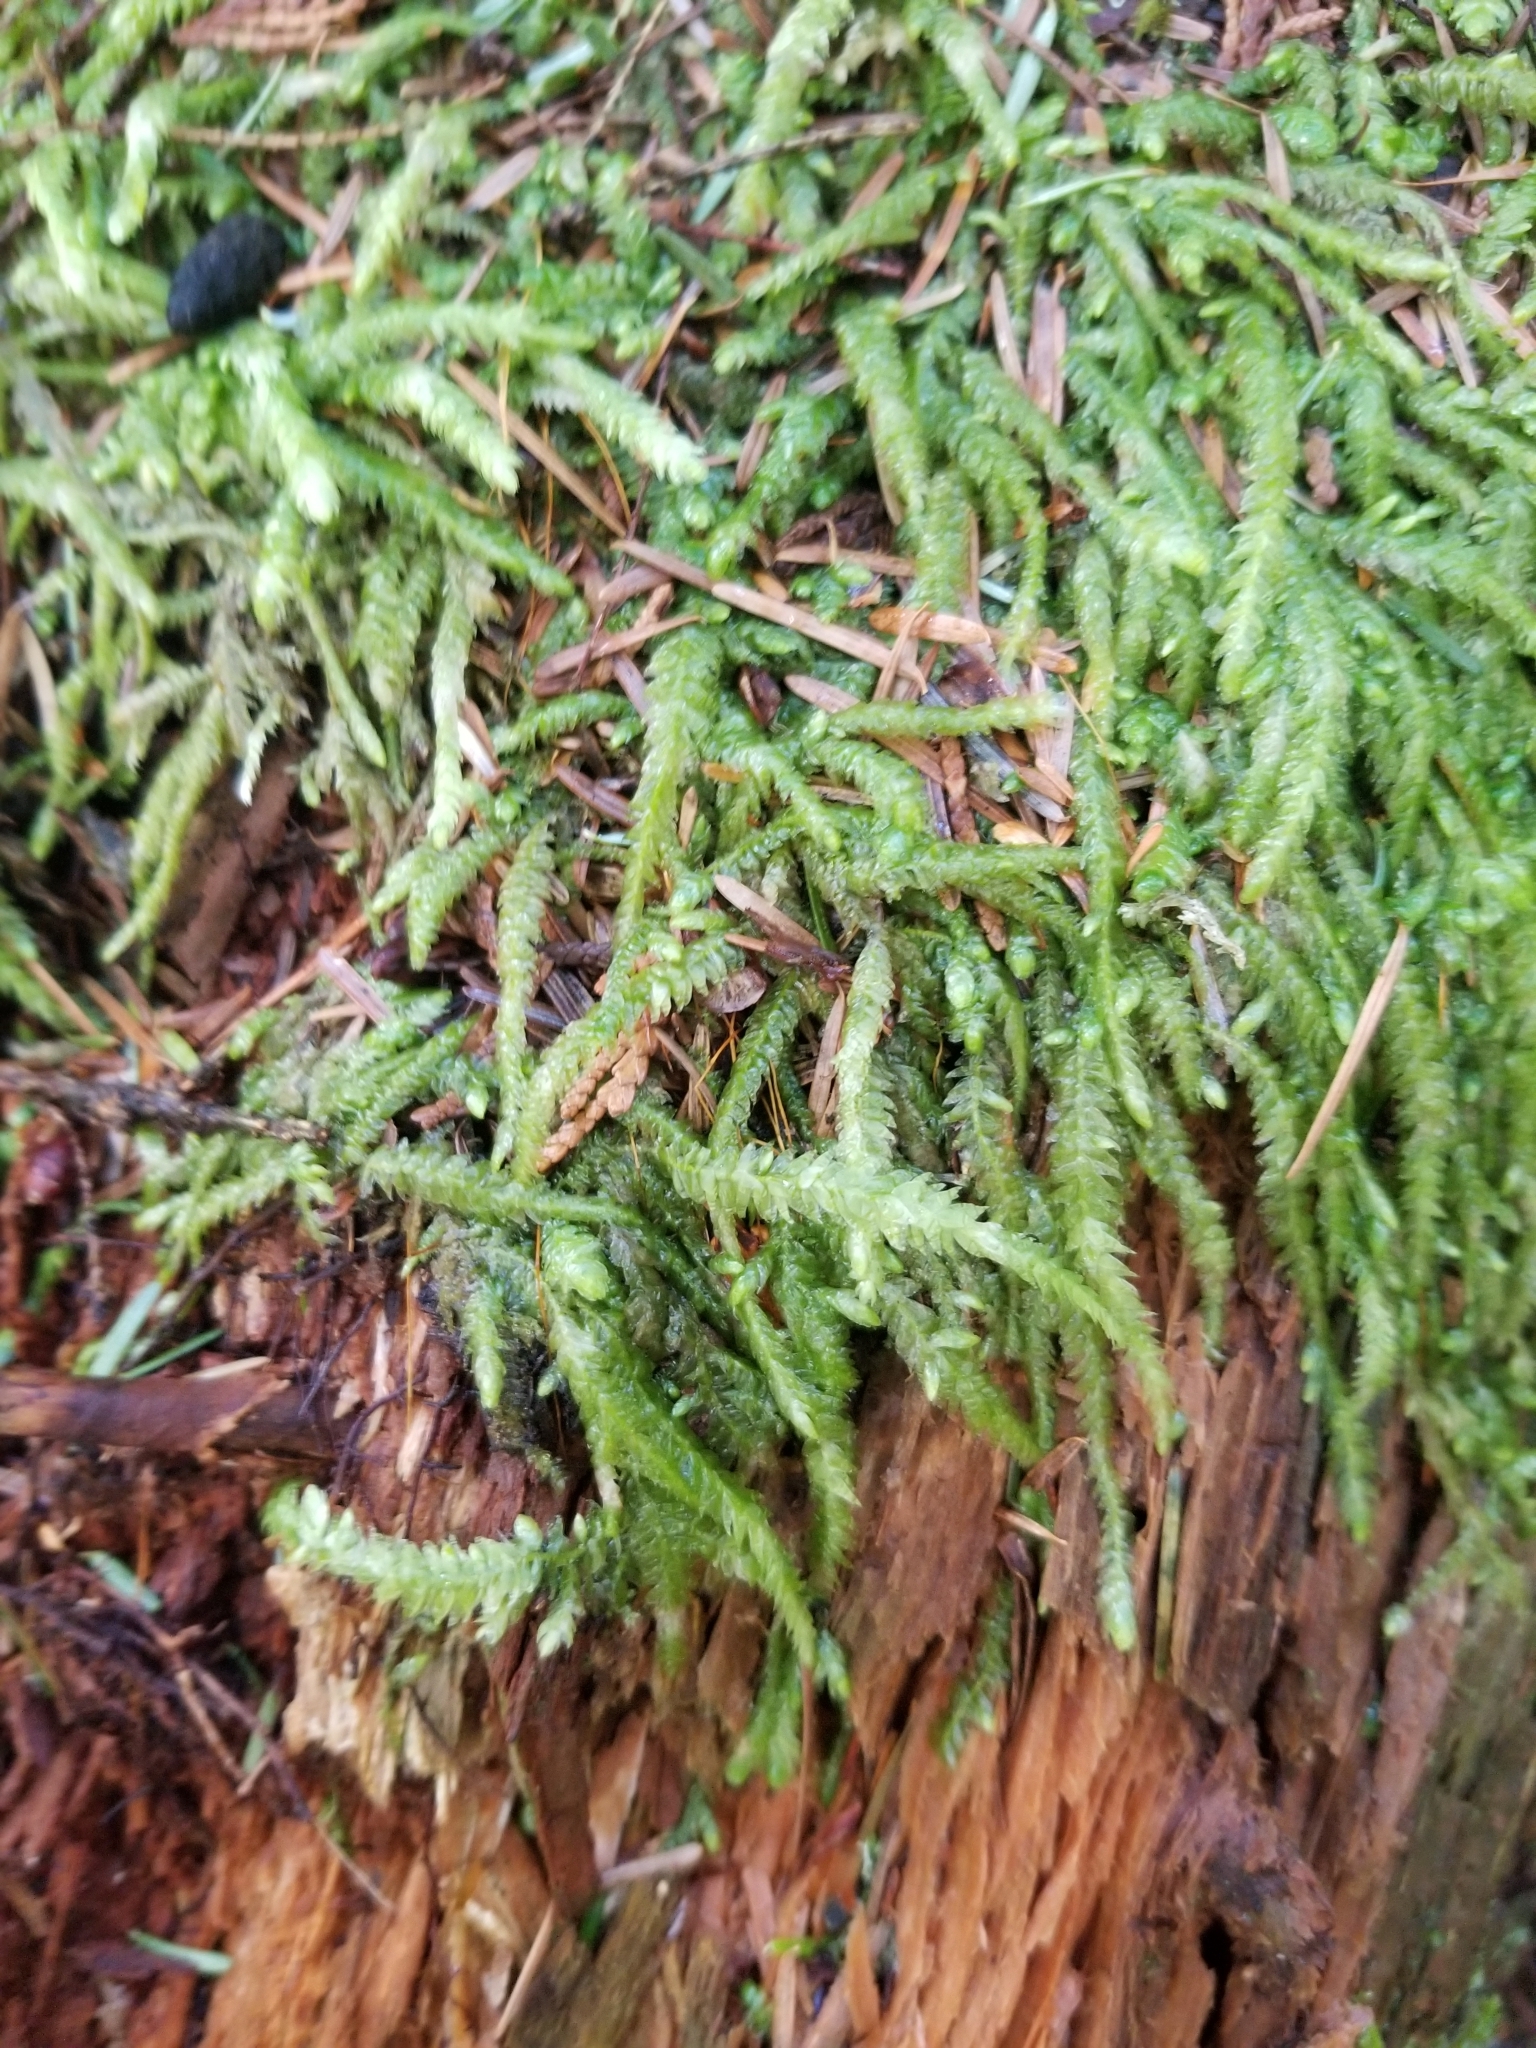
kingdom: Plantae
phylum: Bryophyta
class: Bryopsida
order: Hypnales
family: Plagiotheciaceae
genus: Plagiothecium
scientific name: Plagiothecium undulatum
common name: Waved silk-moss
